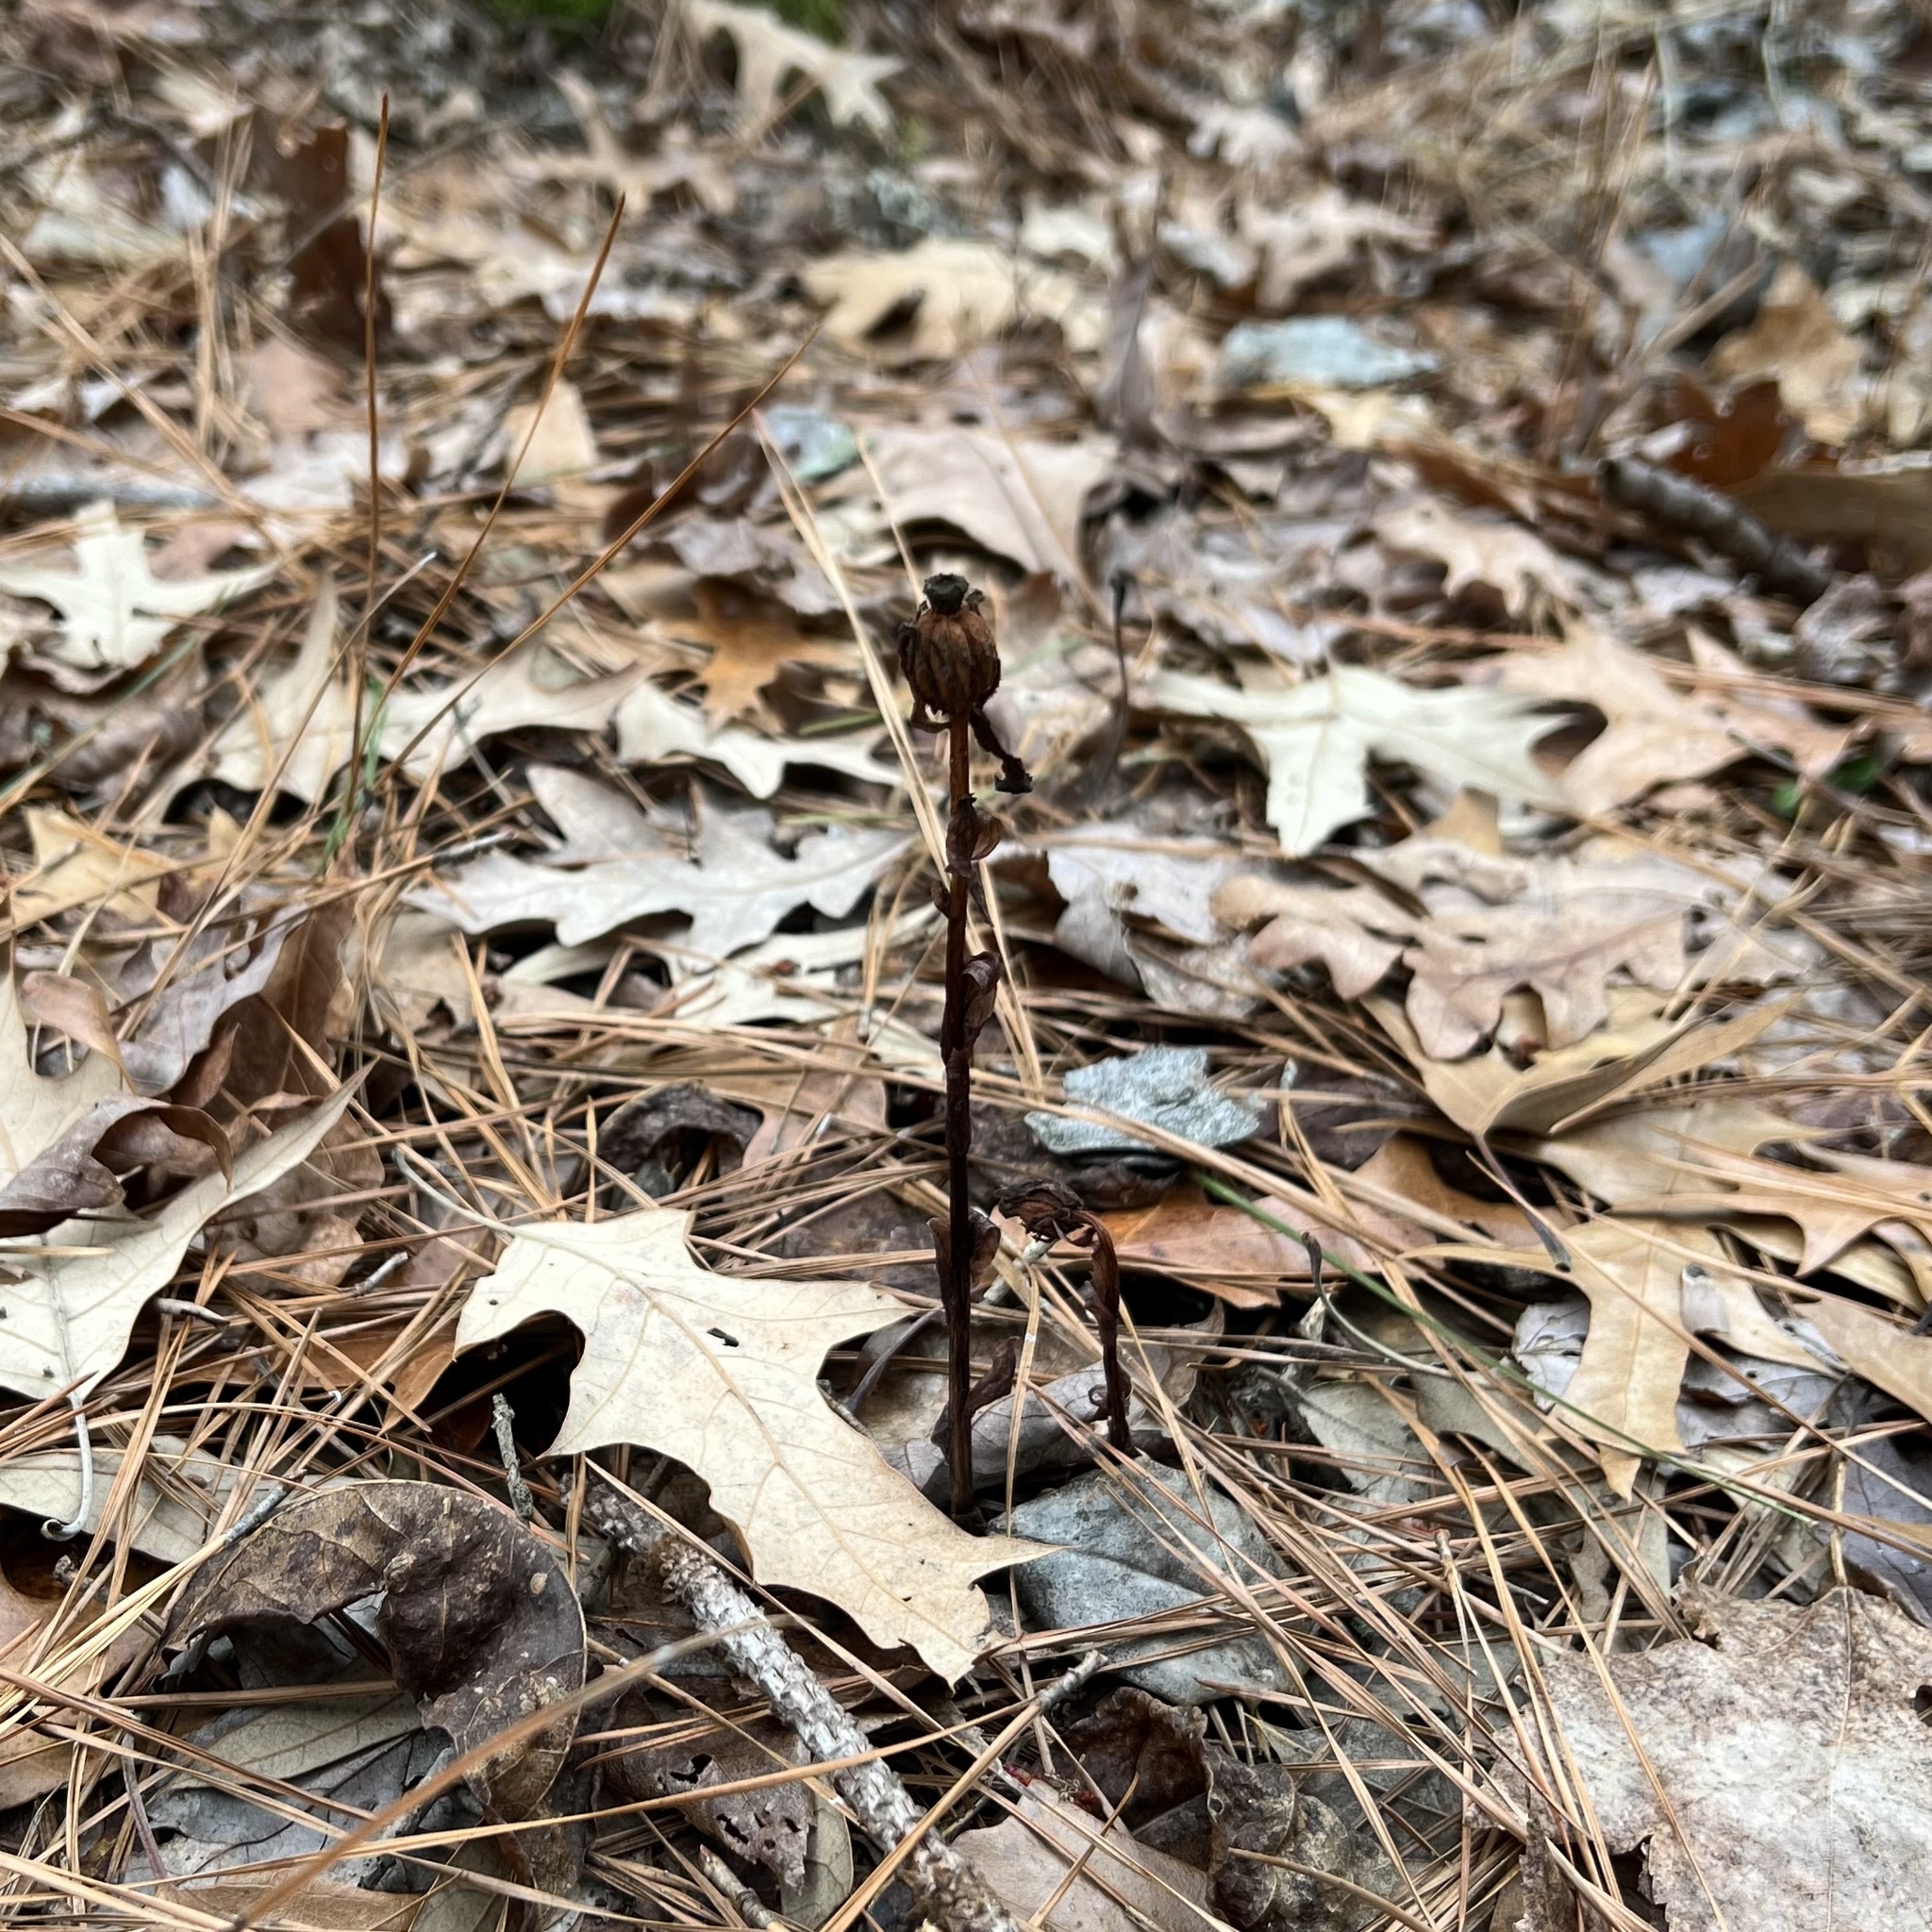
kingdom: Plantae
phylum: Tracheophyta
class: Magnoliopsida
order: Ericales
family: Ericaceae
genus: Monotropa
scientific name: Monotropa uniflora
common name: Convulsion root
